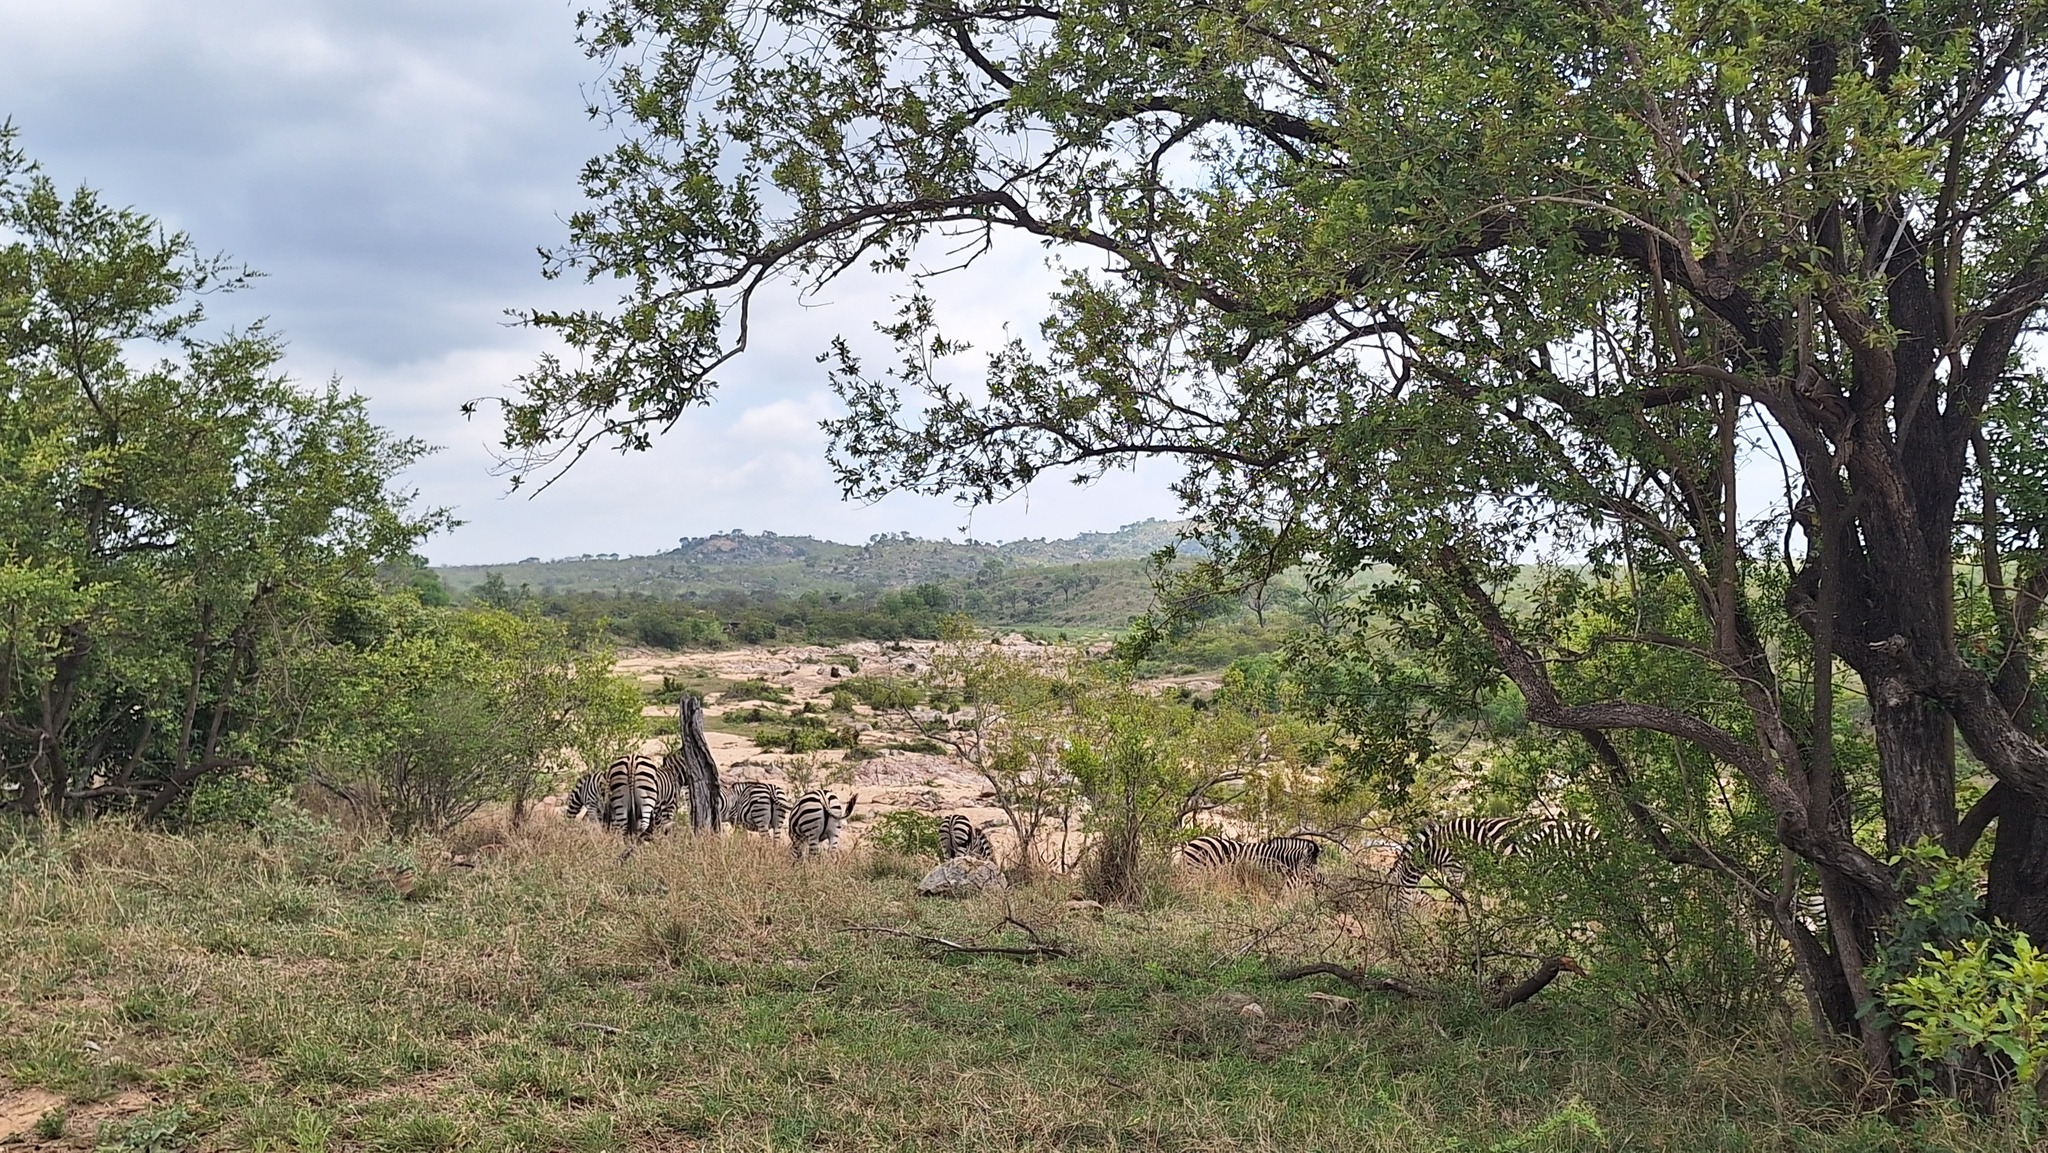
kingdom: Animalia
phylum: Chordata
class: Mammalia
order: Perissodactyla
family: Equidae
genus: Equus
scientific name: Equus quagga
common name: Plains zebra
